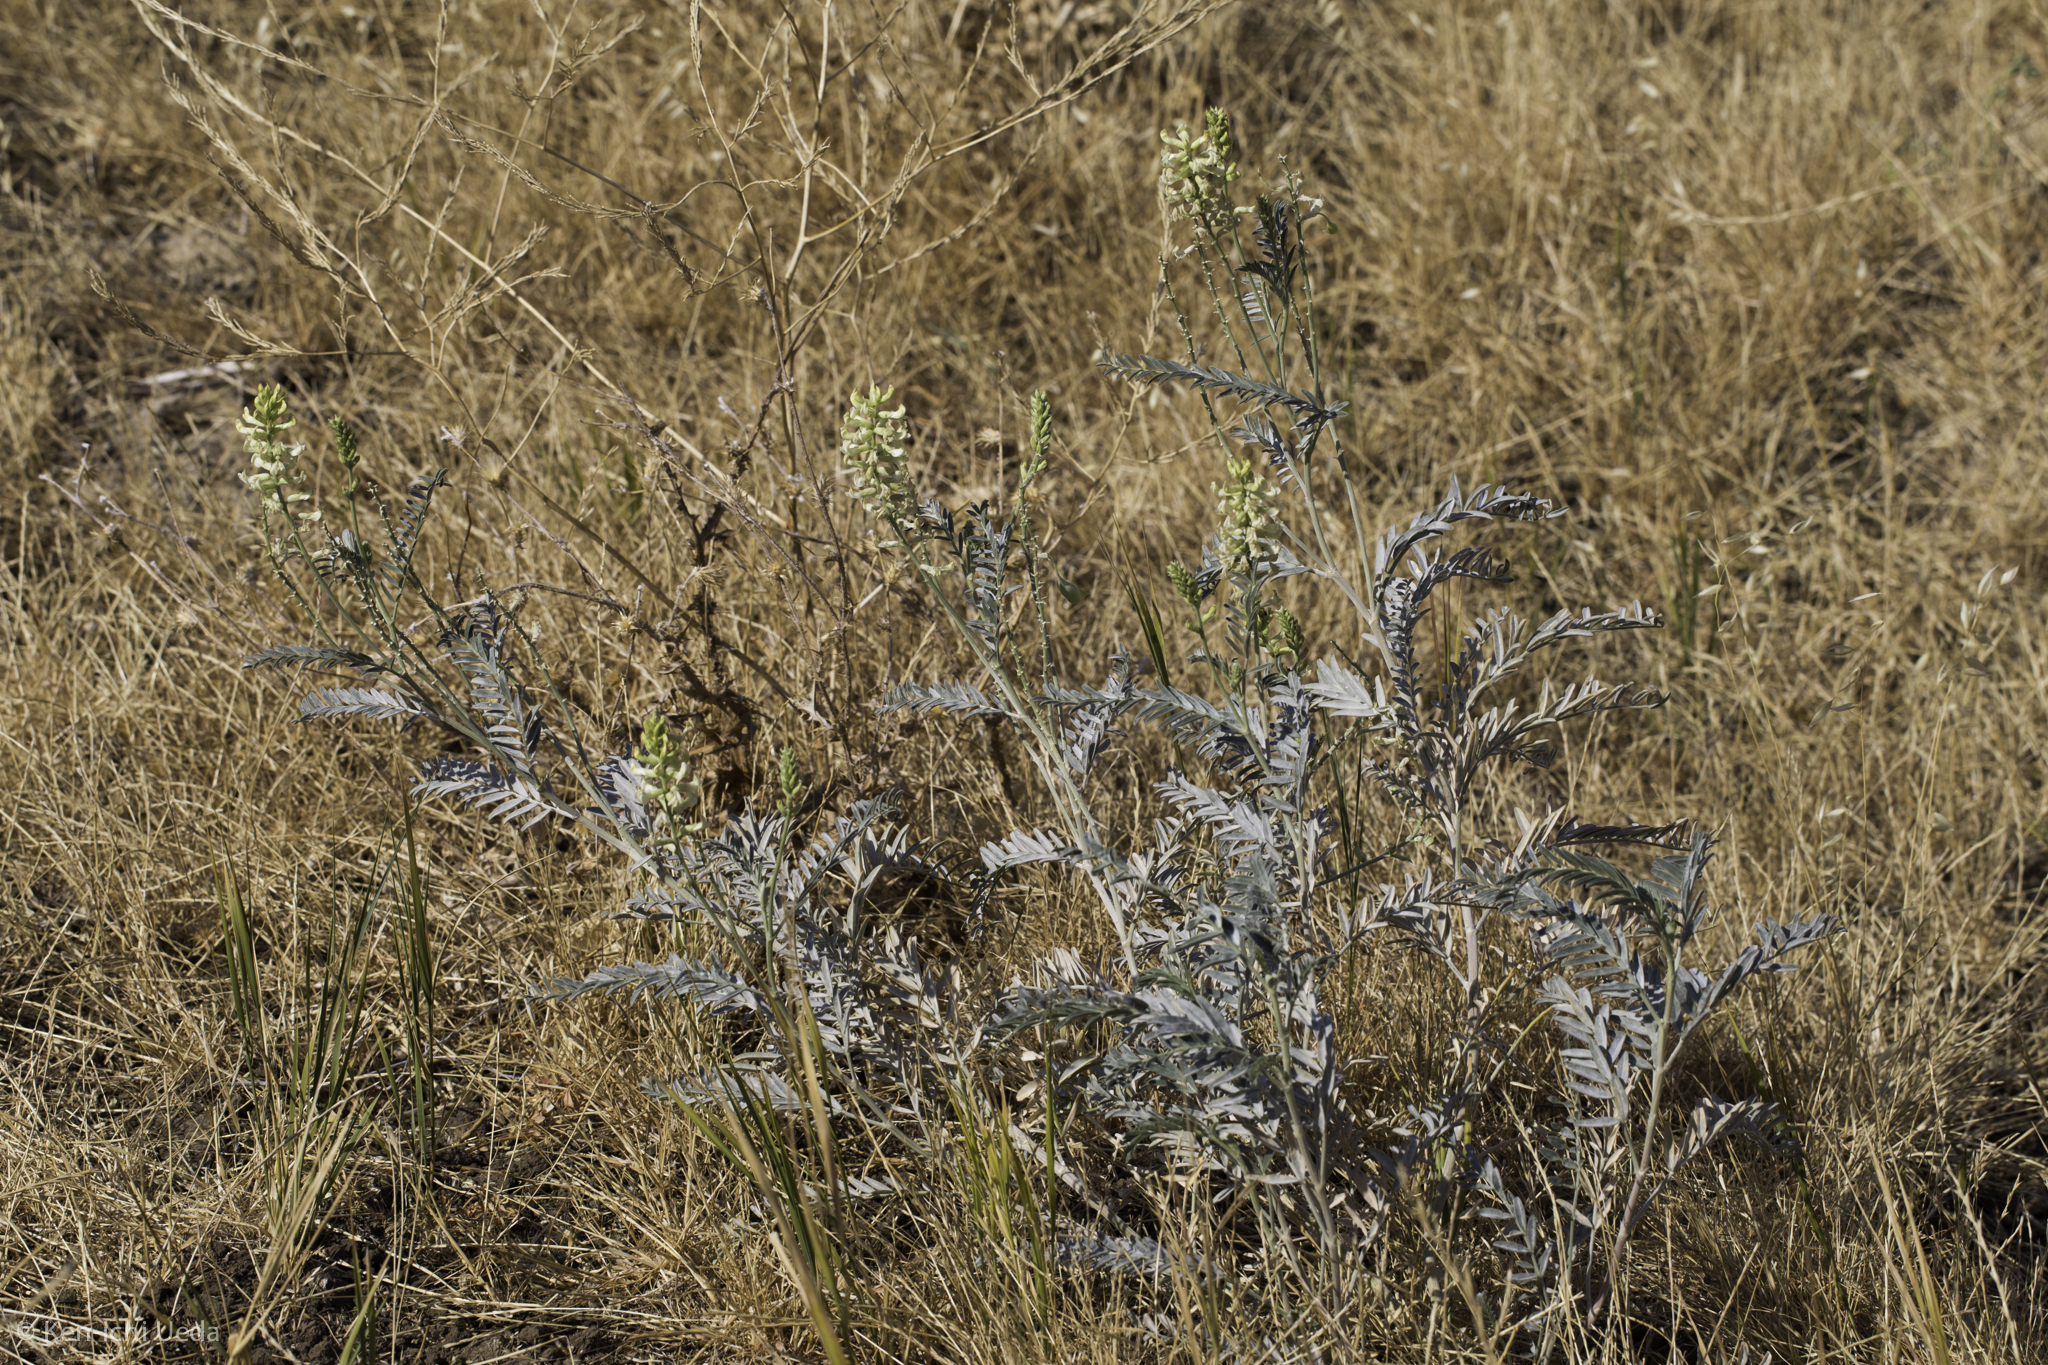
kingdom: Plantae
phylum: Tracheophyta
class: Magnoliopsida
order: Fabales
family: Fabaceae
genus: Astragalus
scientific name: Astragalus asymmetricus
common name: Horse locoweed
